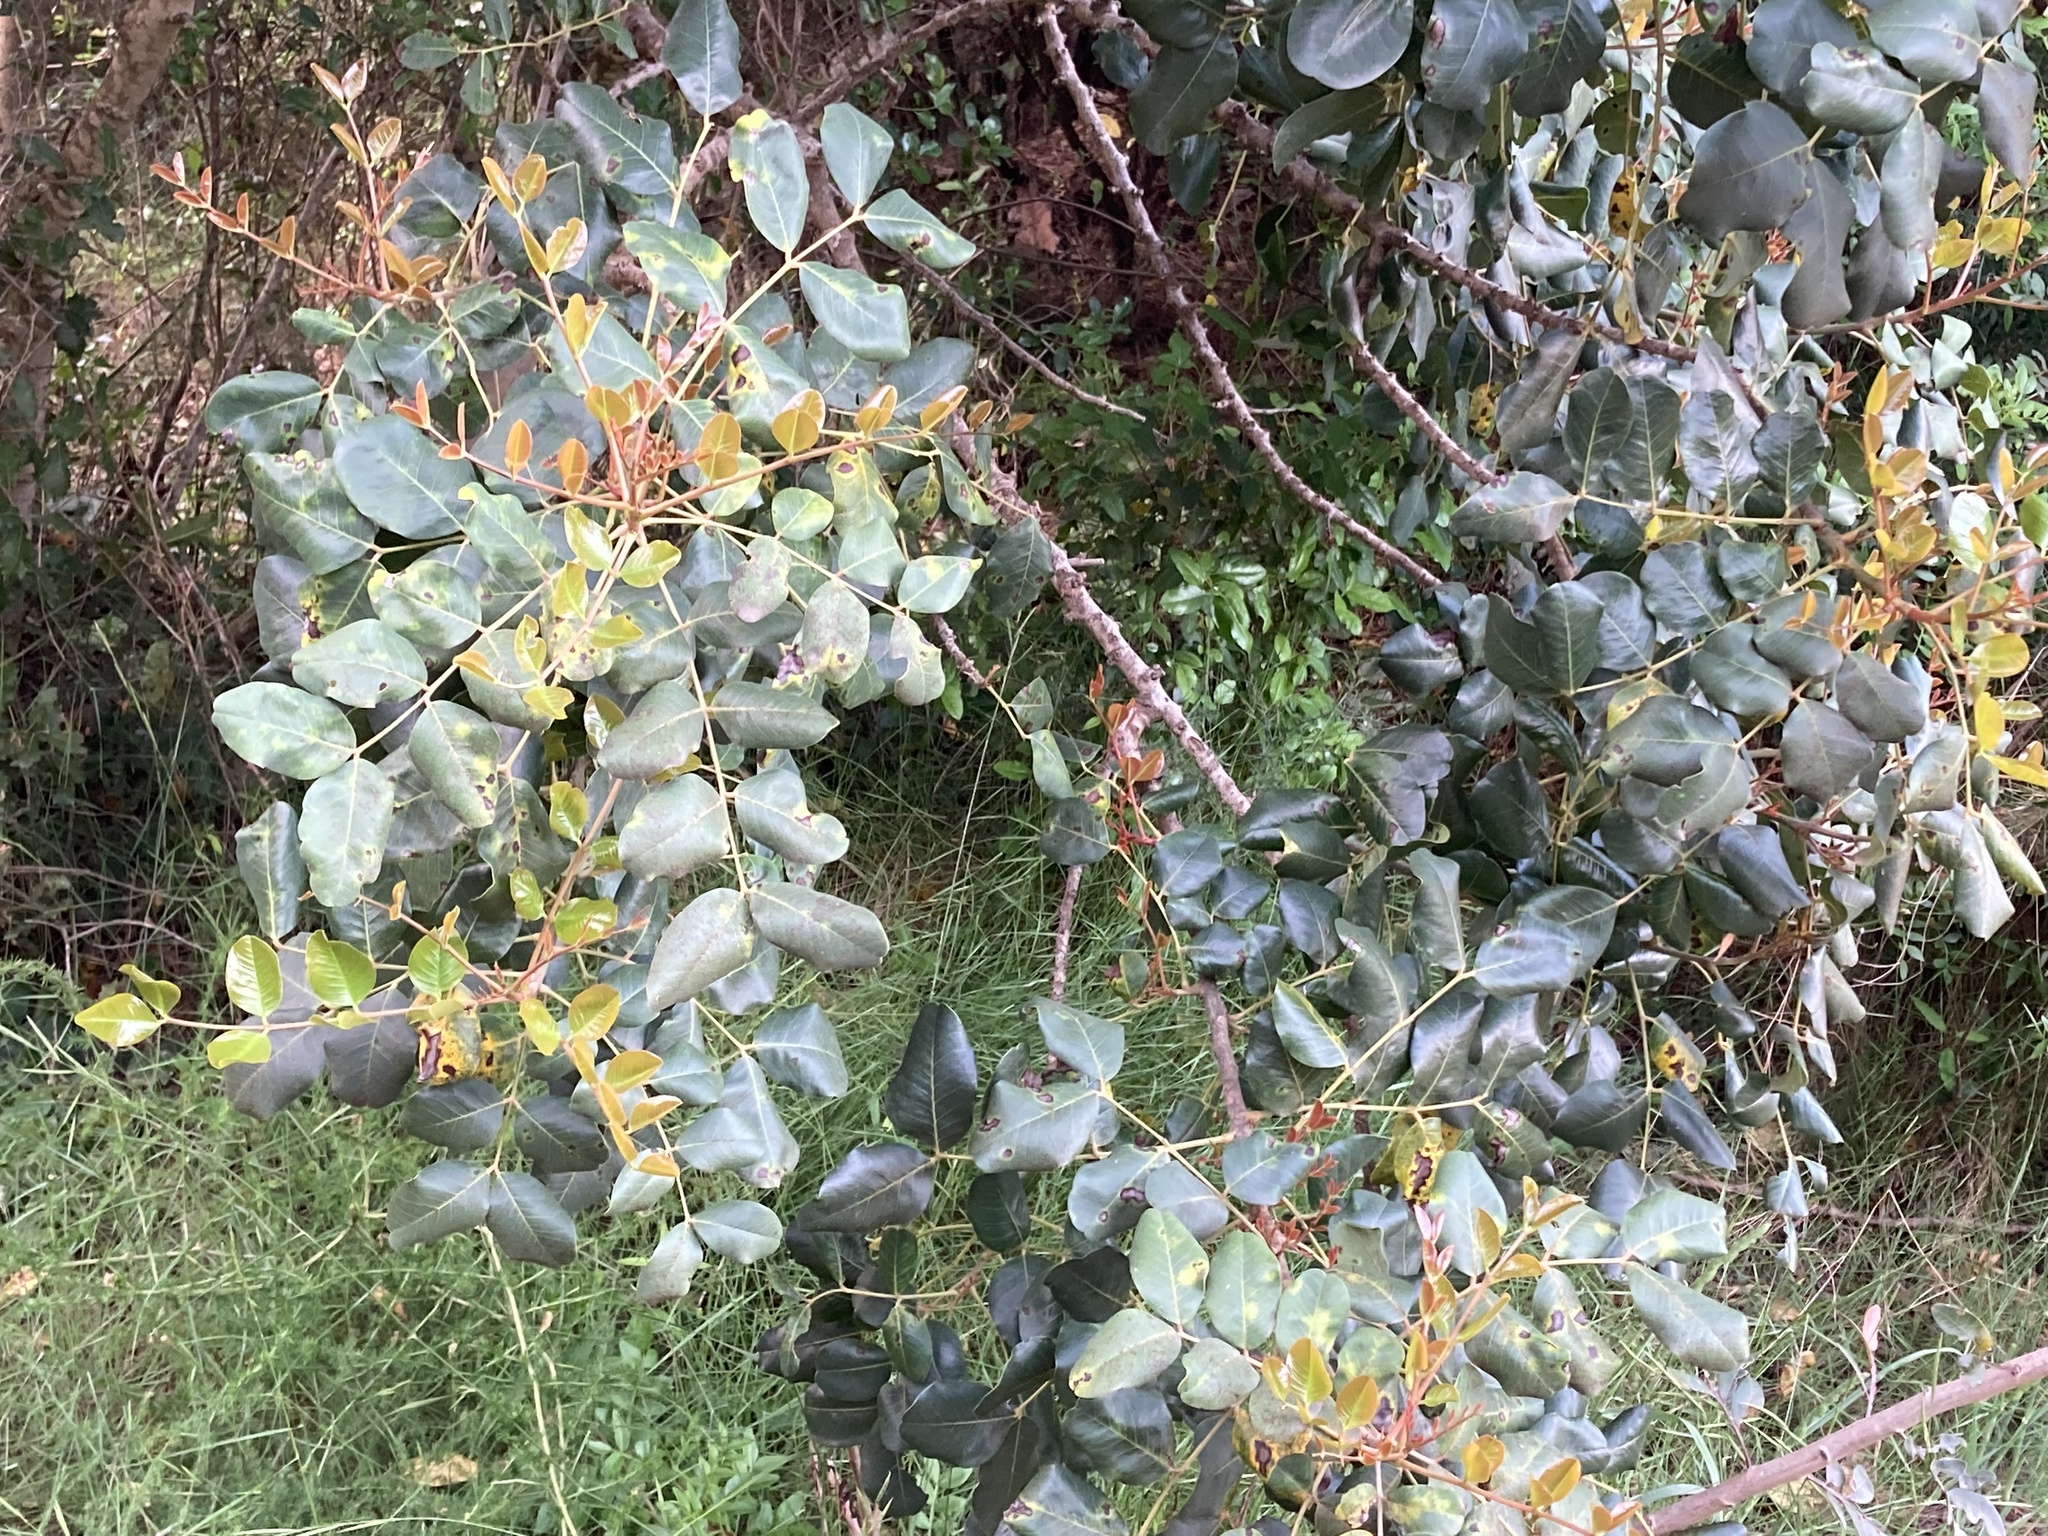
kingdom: Plantae
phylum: Tracheophyta
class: Magnoliopsida
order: Fabales
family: Fabaceae
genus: Ceratonia
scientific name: Ceratonia siliqua
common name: Carob
